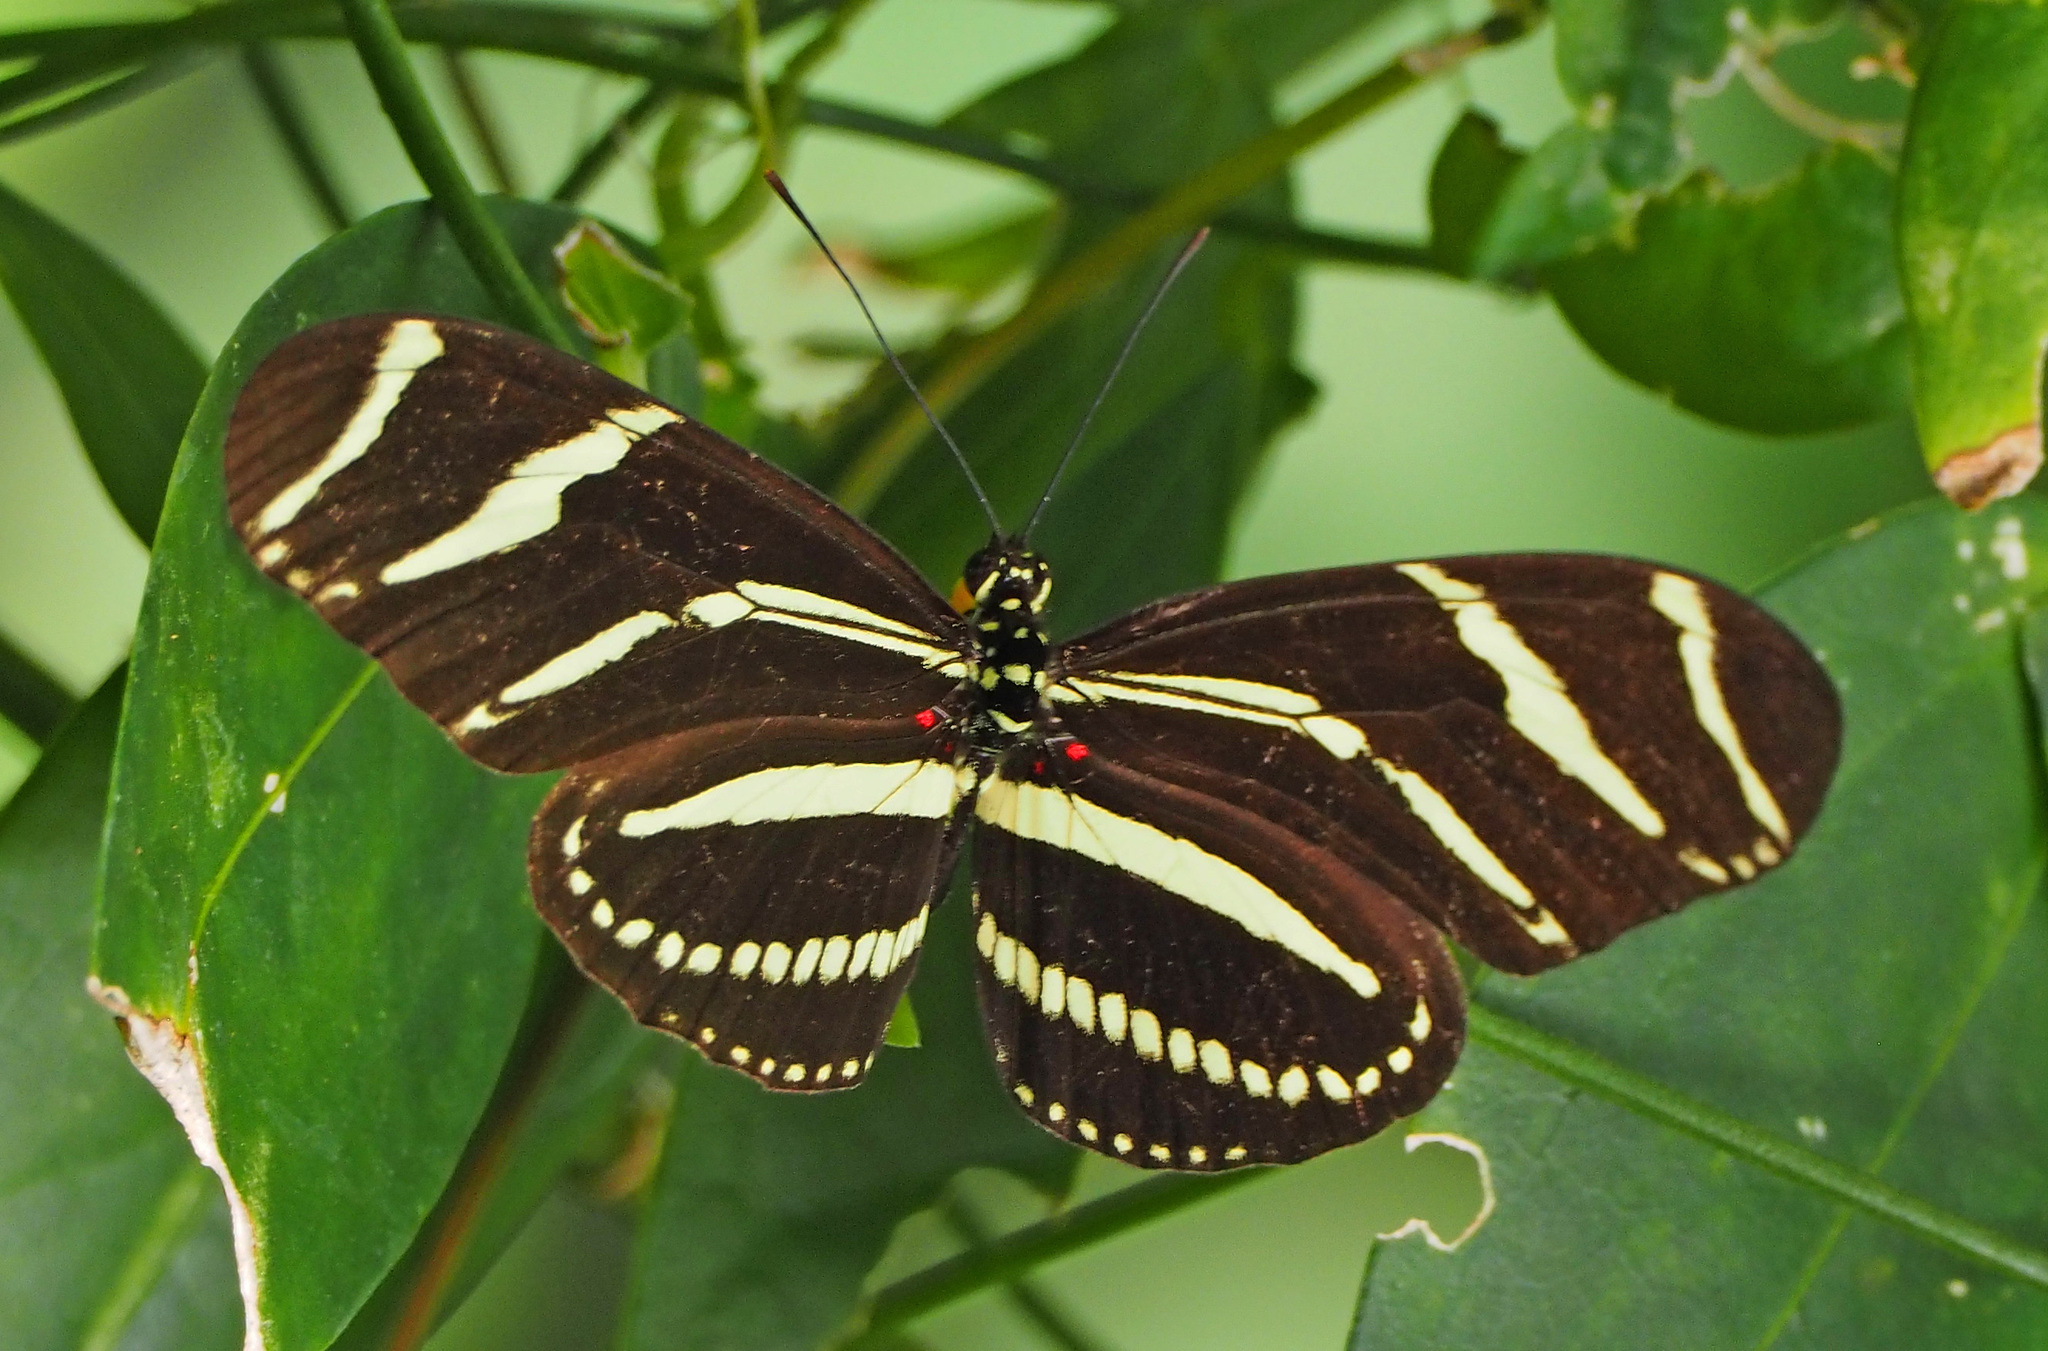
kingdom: Animalia
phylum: Arthropoda
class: Insecta
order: Lepidoptera
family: Nymphalidae
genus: Heliconius
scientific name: Heliconius charithonia
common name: Zebra long wing
